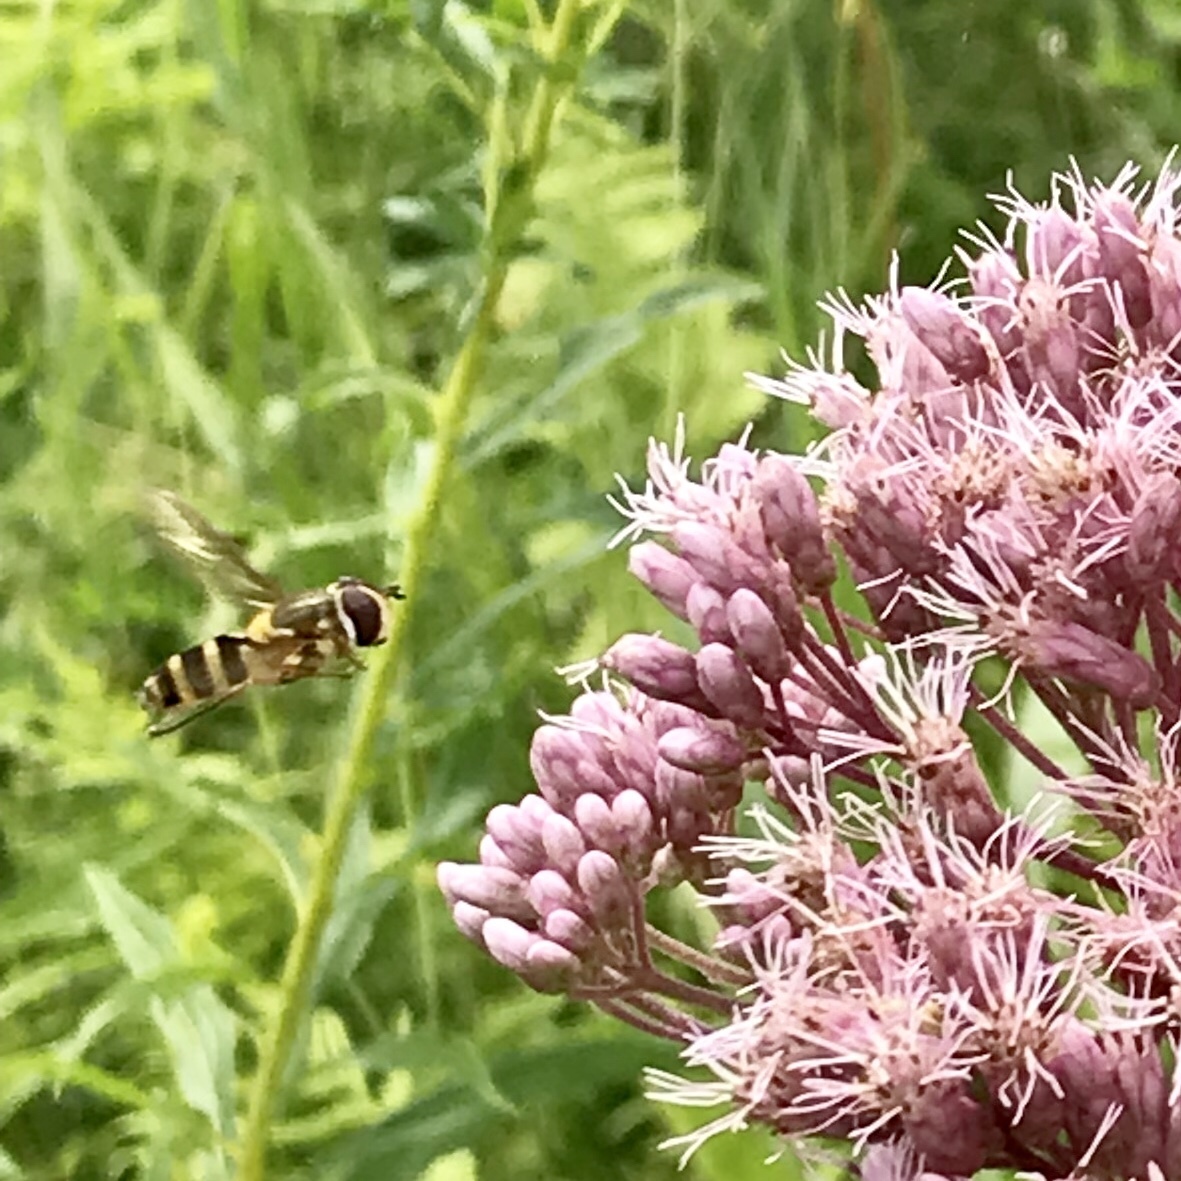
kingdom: Animalia
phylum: Arthropoda
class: Insecta
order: Diptera
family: Syrphidae
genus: Epistrophe
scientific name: Epistrophe grossulariae
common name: Black-horned smoothtail
